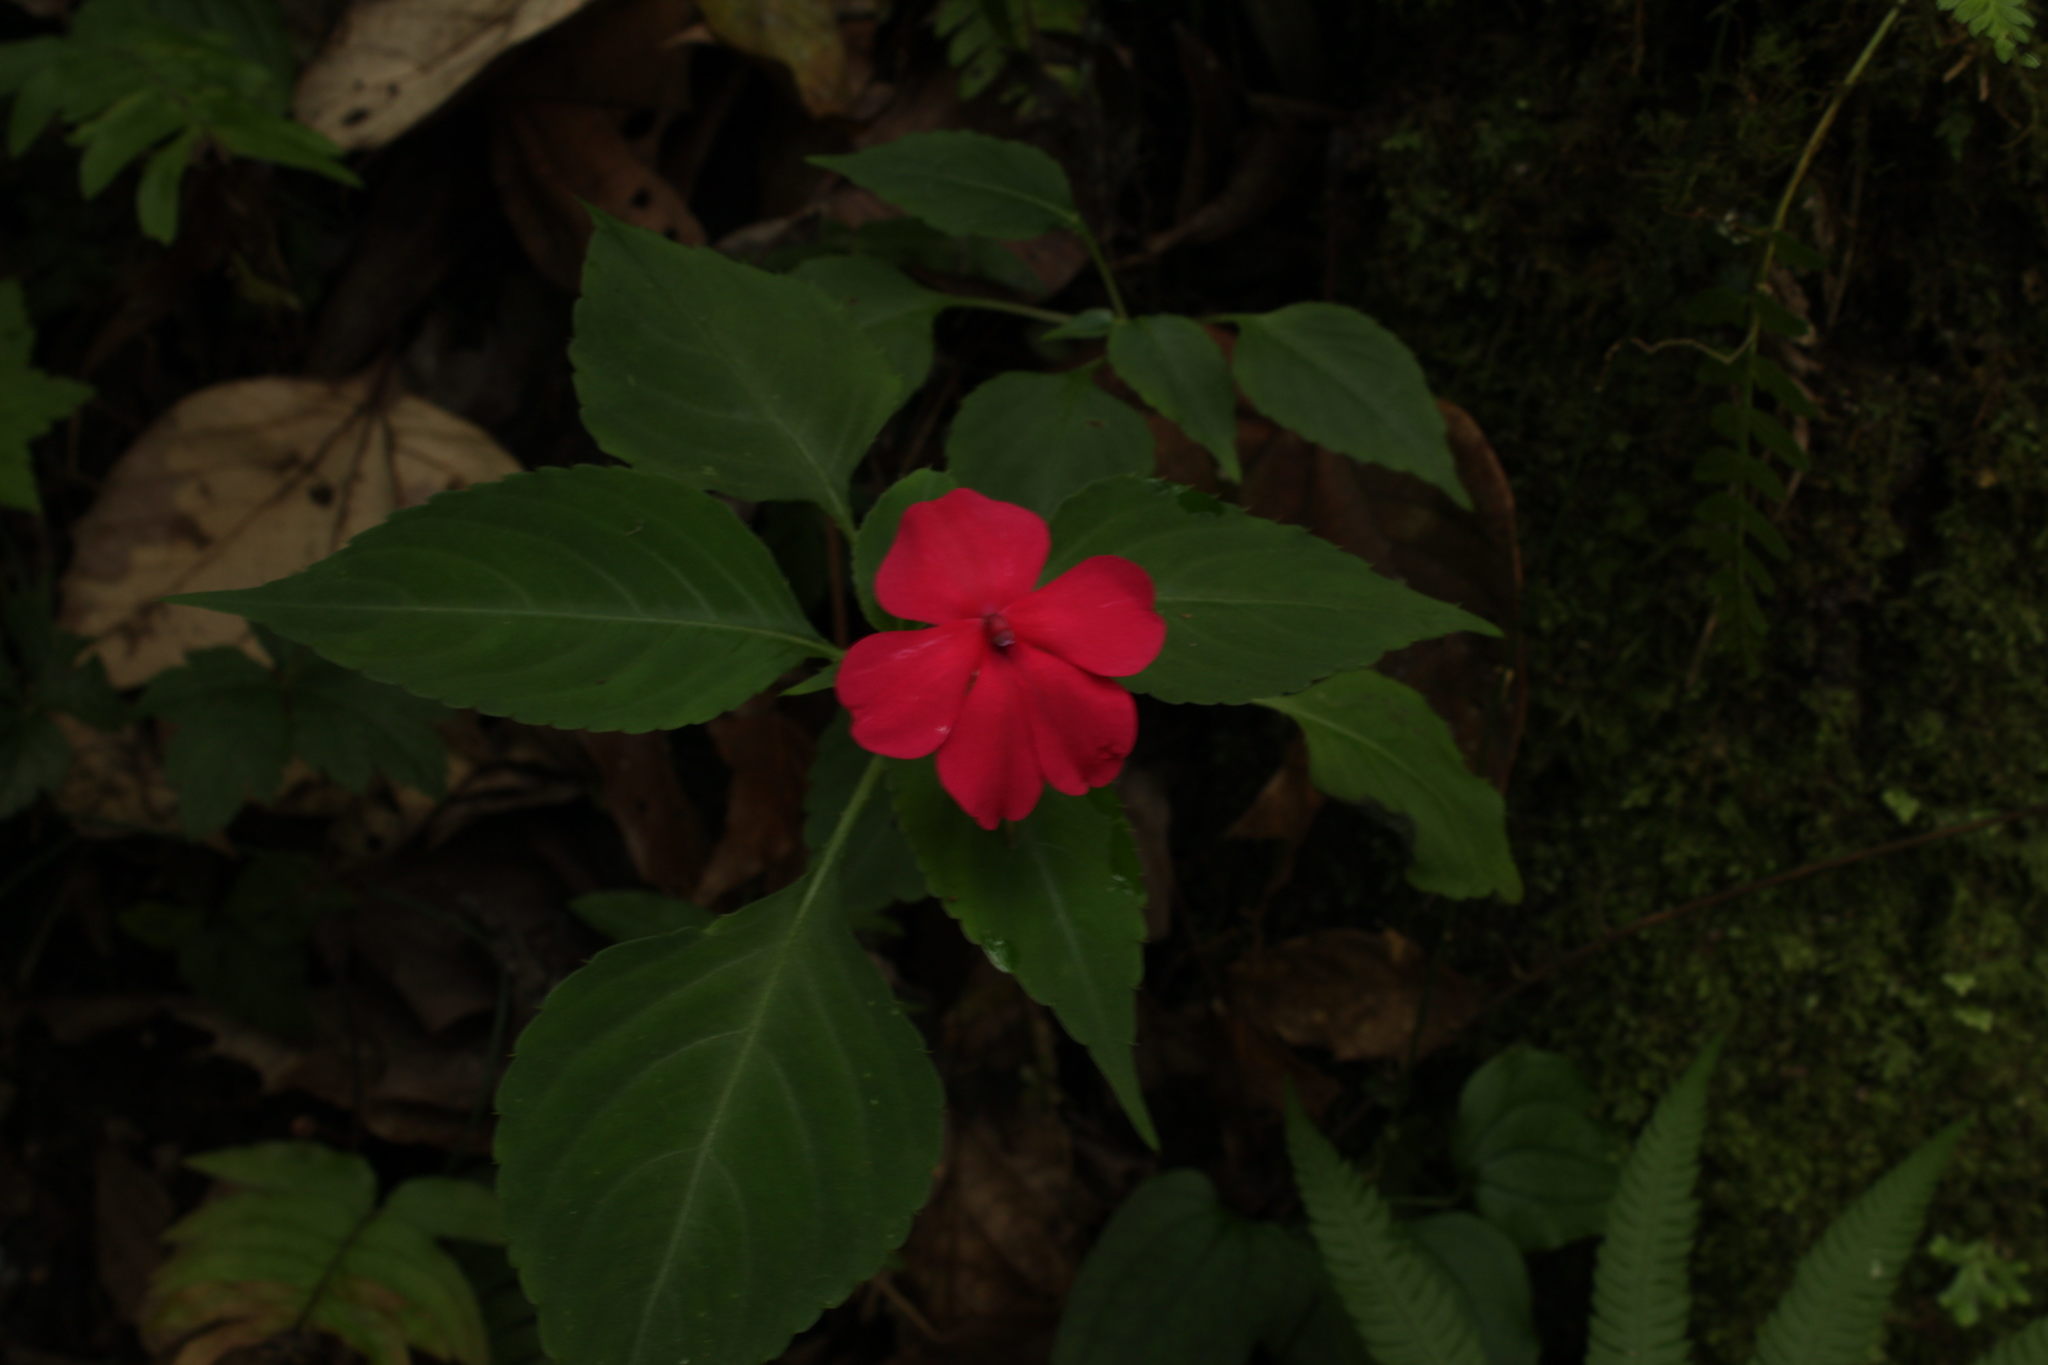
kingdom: Plantae
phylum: Tracheophyta
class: Magnoliopsida
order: Ericales
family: Balsaminaceae
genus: Impatiens
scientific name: Impatiens walleriana
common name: Buzzy lizzy
